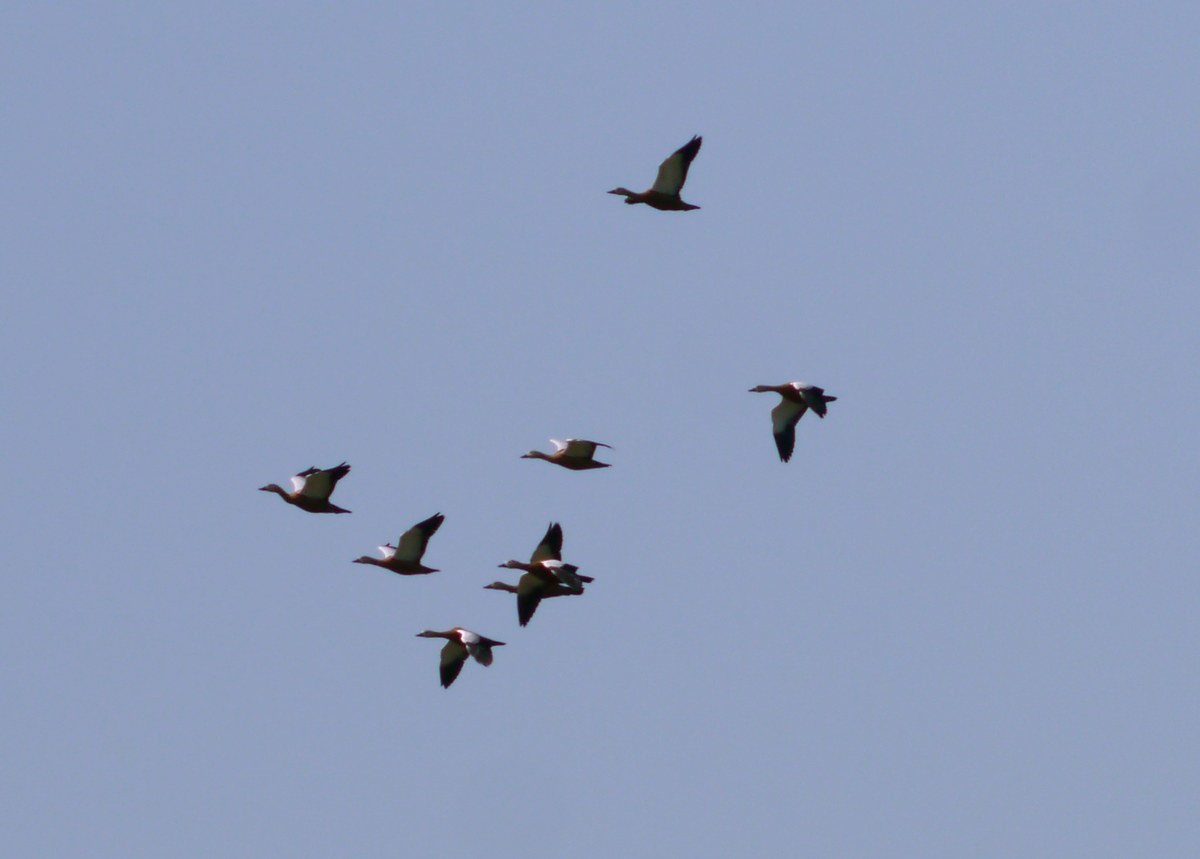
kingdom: Animalia
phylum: Chordata
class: Aves
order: Anseriformes
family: Anatidae
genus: Tadorna
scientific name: Tadorna ferruginea
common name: Ruddy shelduck
